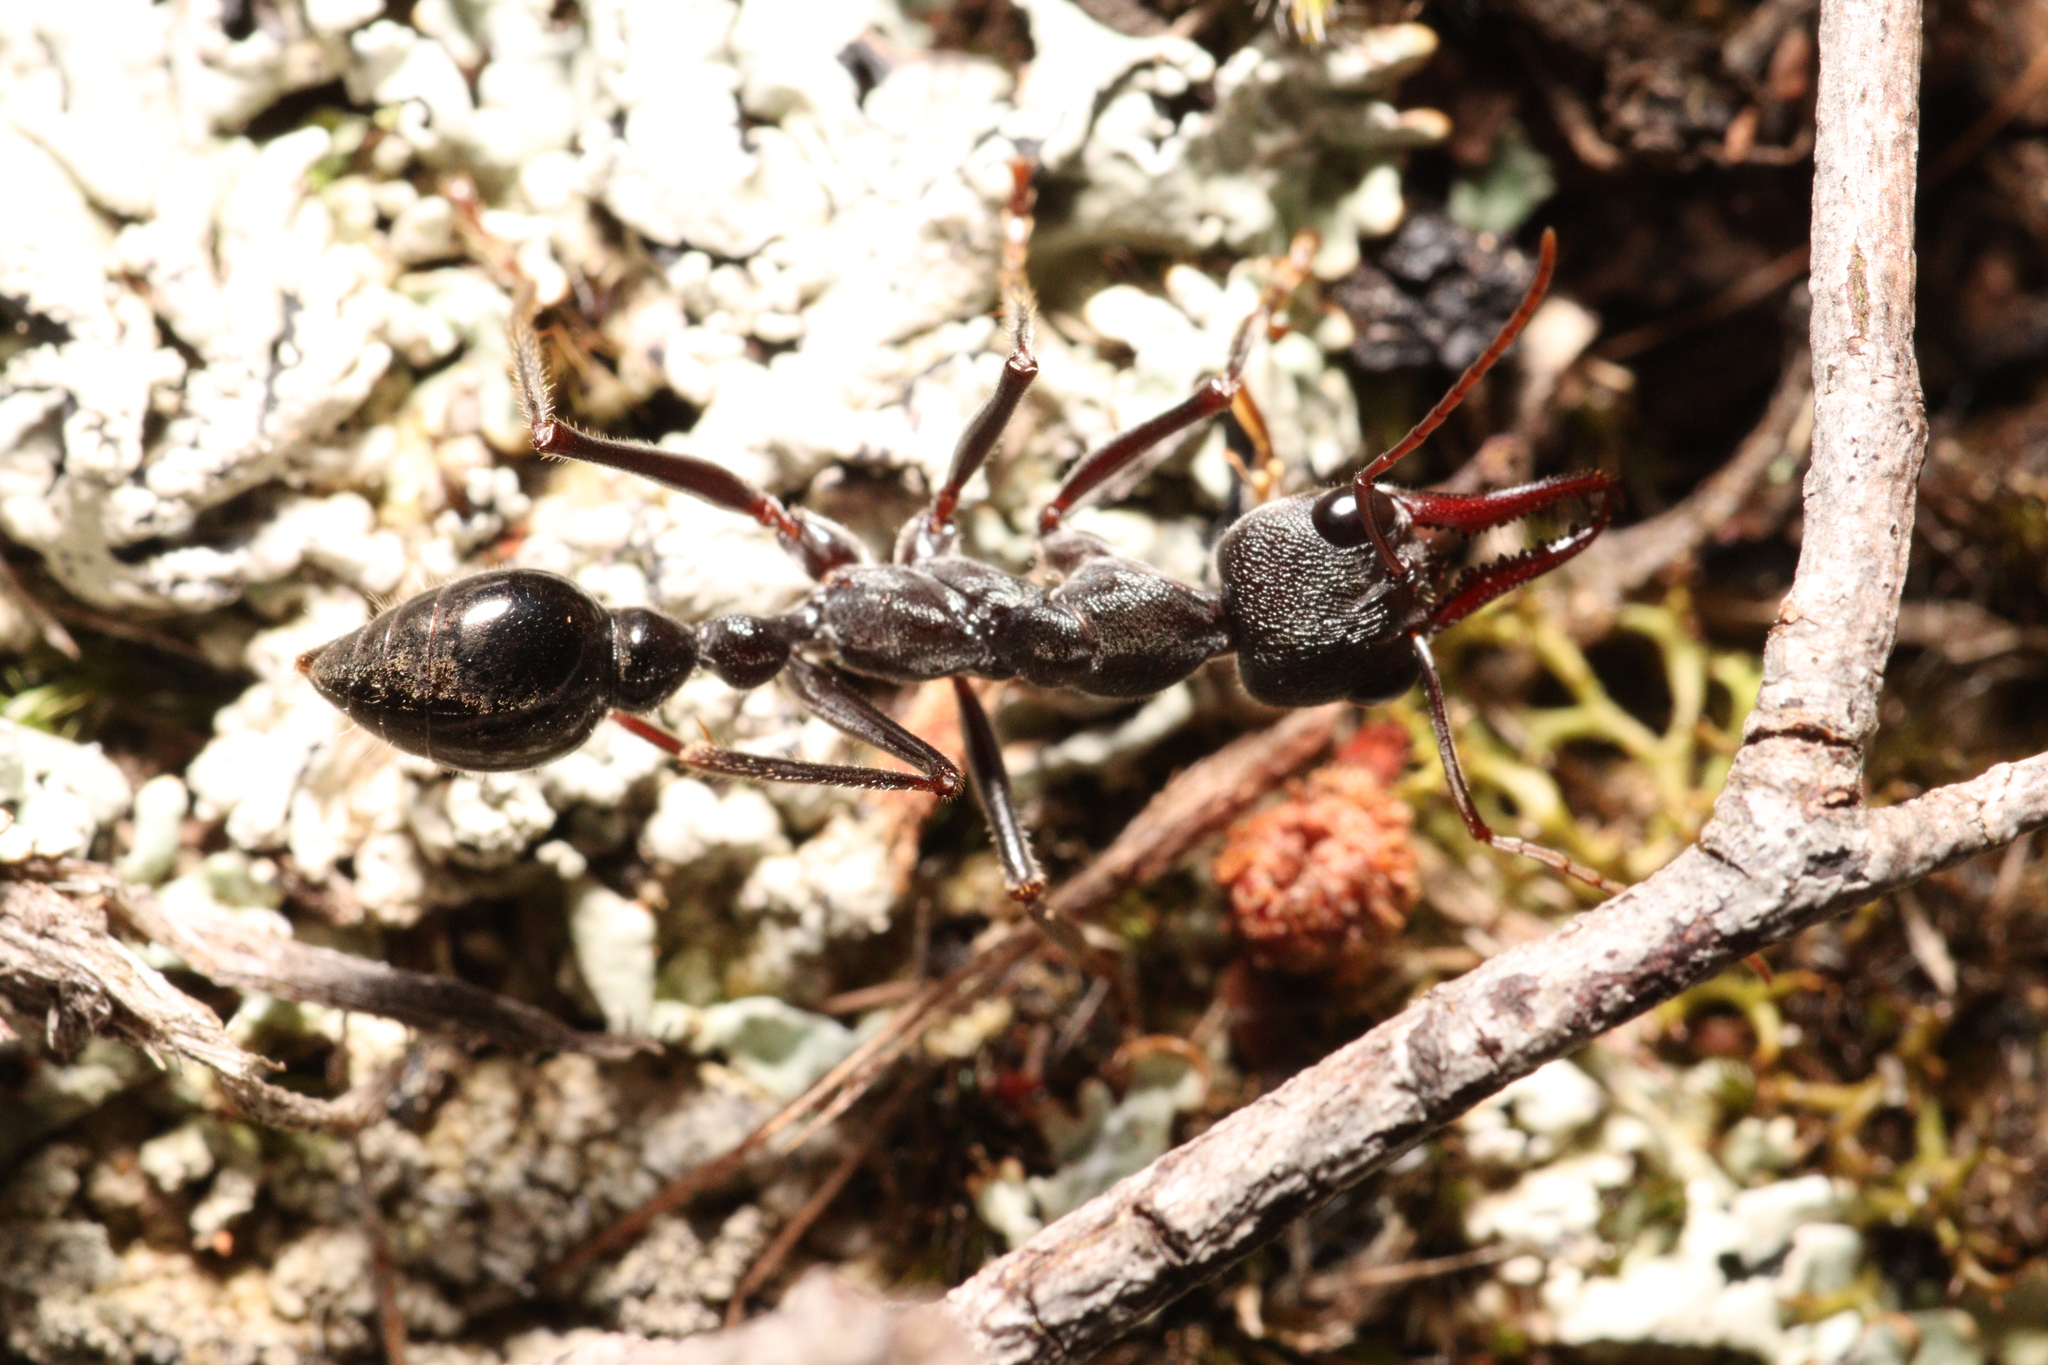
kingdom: Animalia
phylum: Arthropoda
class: Insecta
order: Hymenoptera
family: Formicidae
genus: Myrmecia
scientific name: Myrmecia pyriformis
